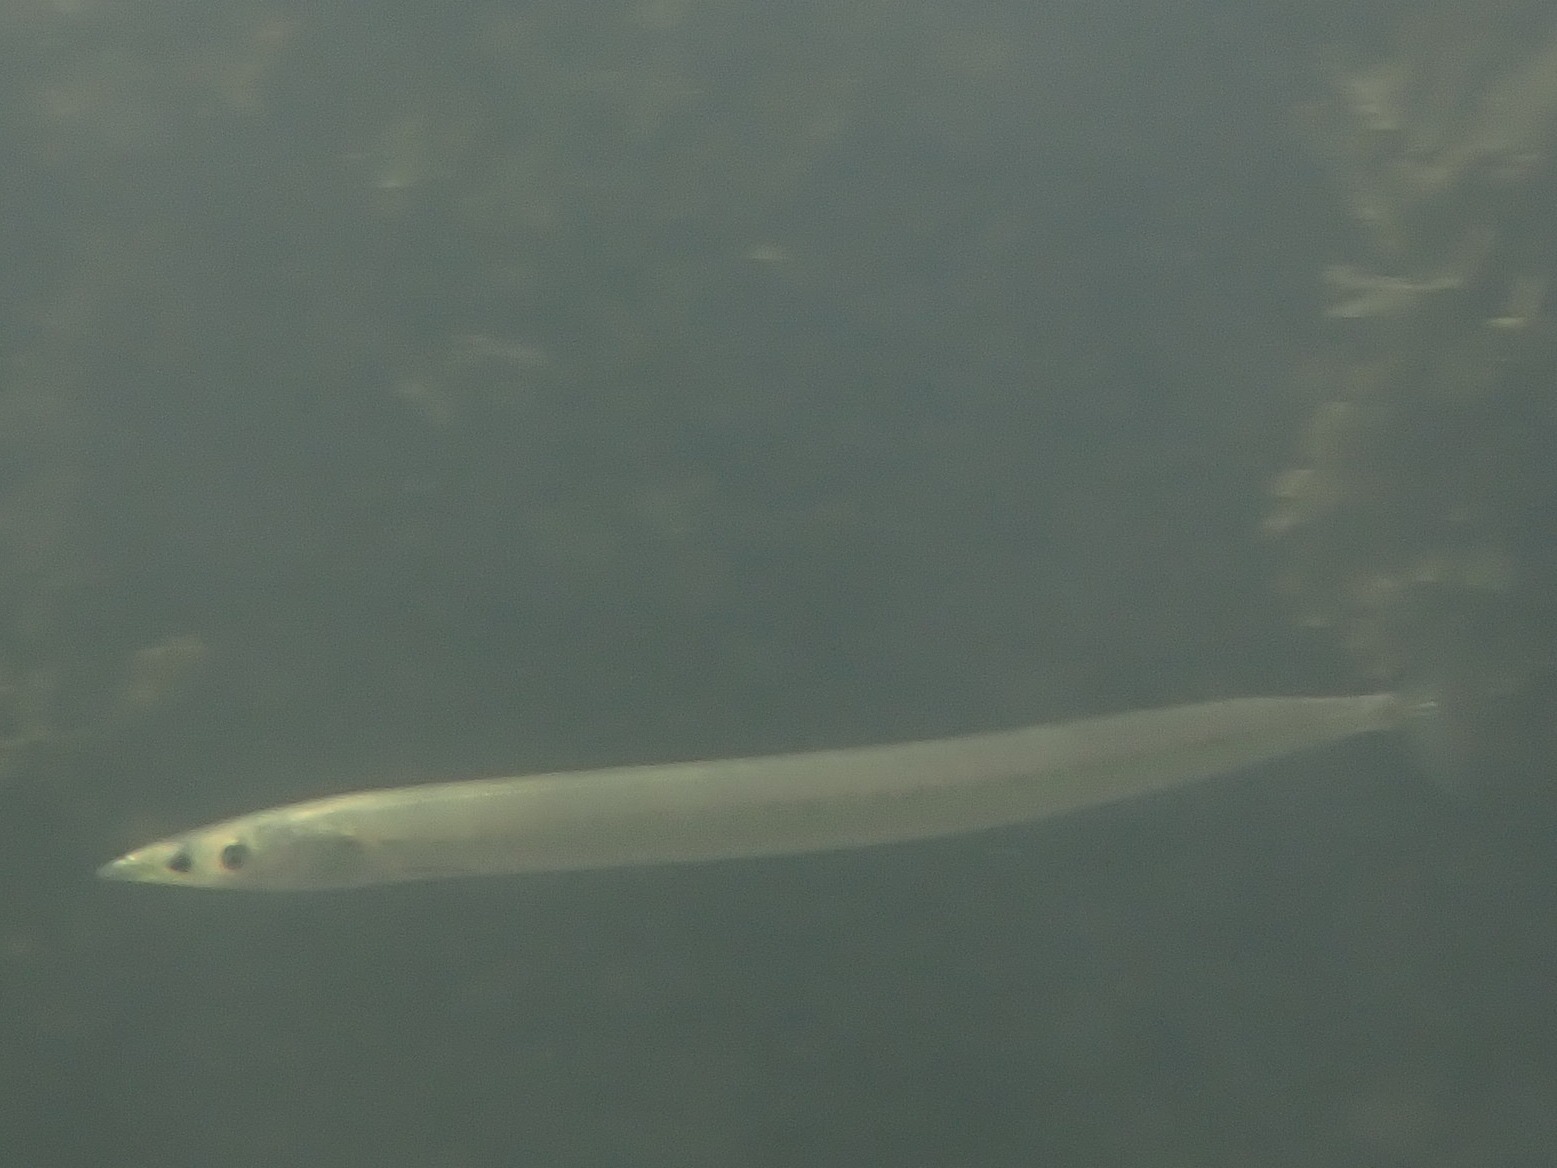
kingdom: Animalia
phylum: Chordata
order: Perciformes
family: Ammodytidae
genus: Hyperoplus
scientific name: Hyperoplus lanceolatus
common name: Greater sandeel
